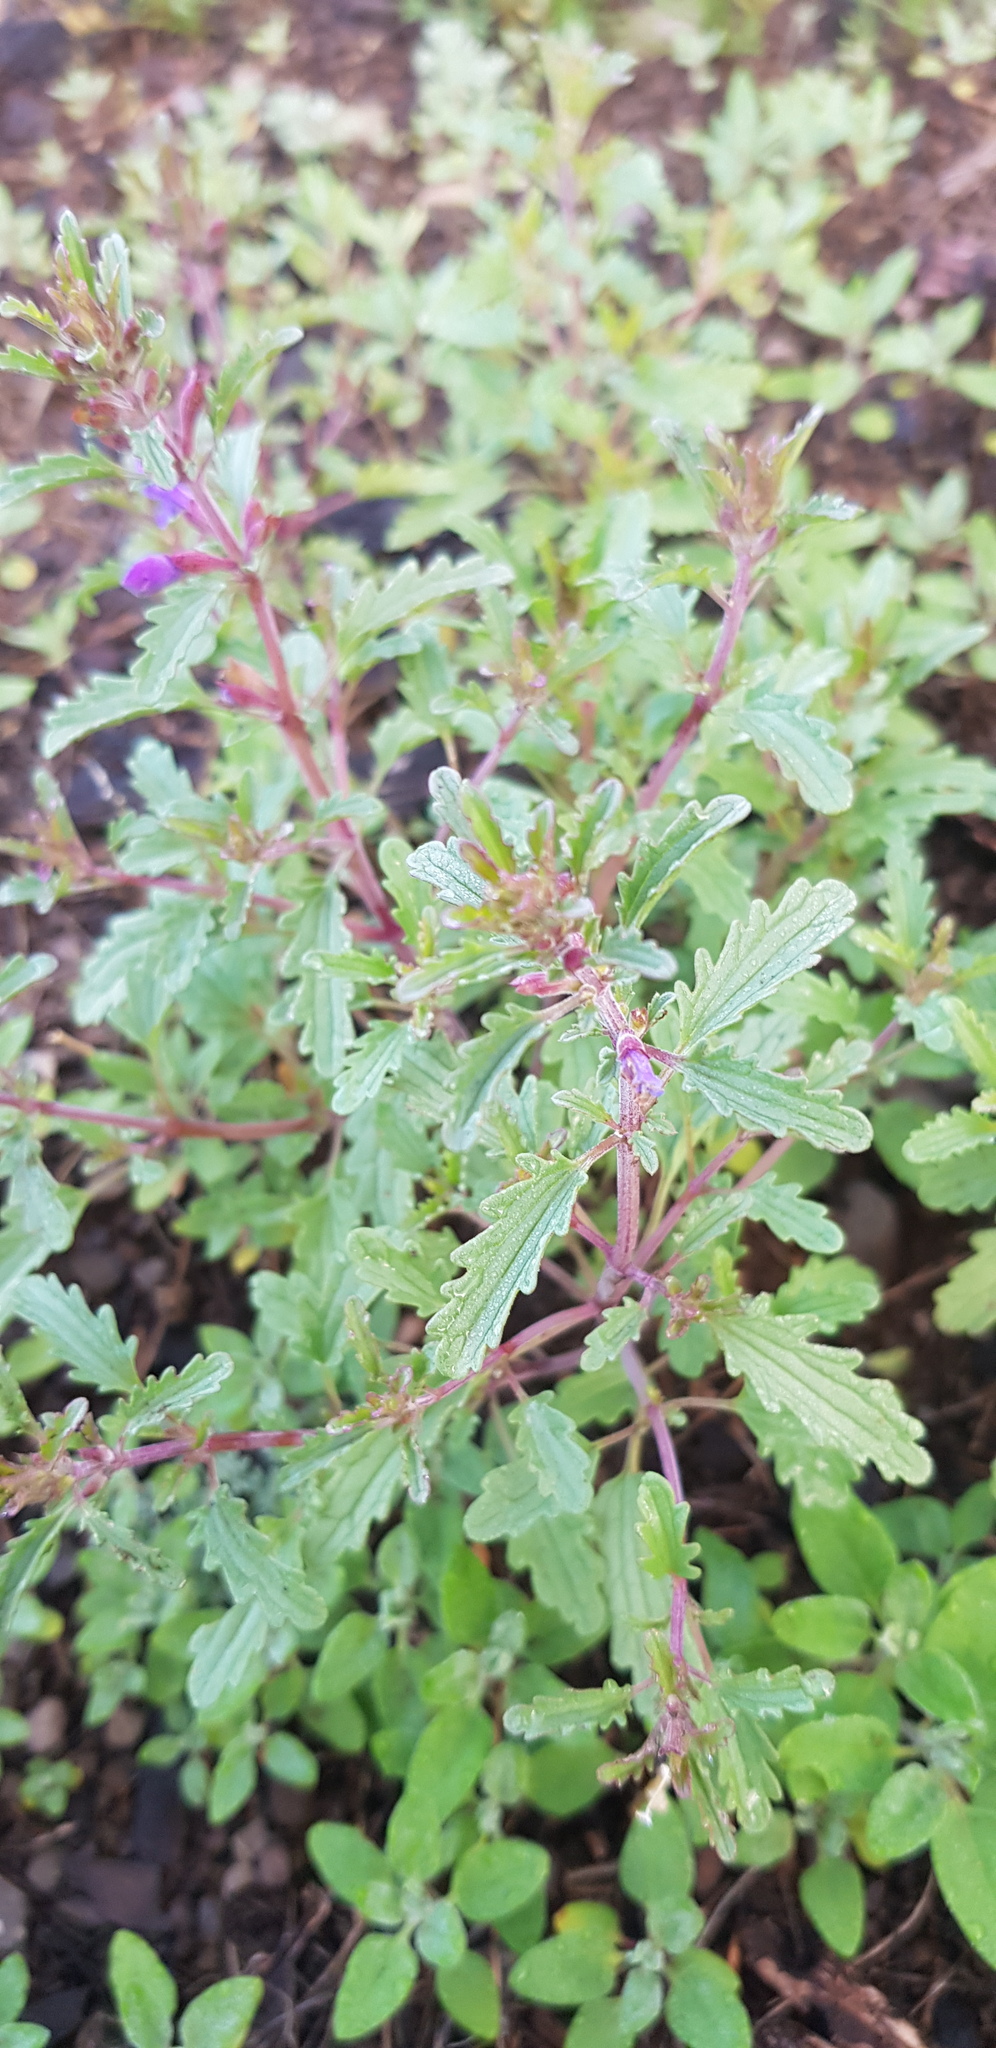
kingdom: Plantae
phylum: Tracheophyta
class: Magnoliopsida
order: Lamiales
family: Lamiaceae
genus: Dracocephalum
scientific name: Dracocephalum foetidum
